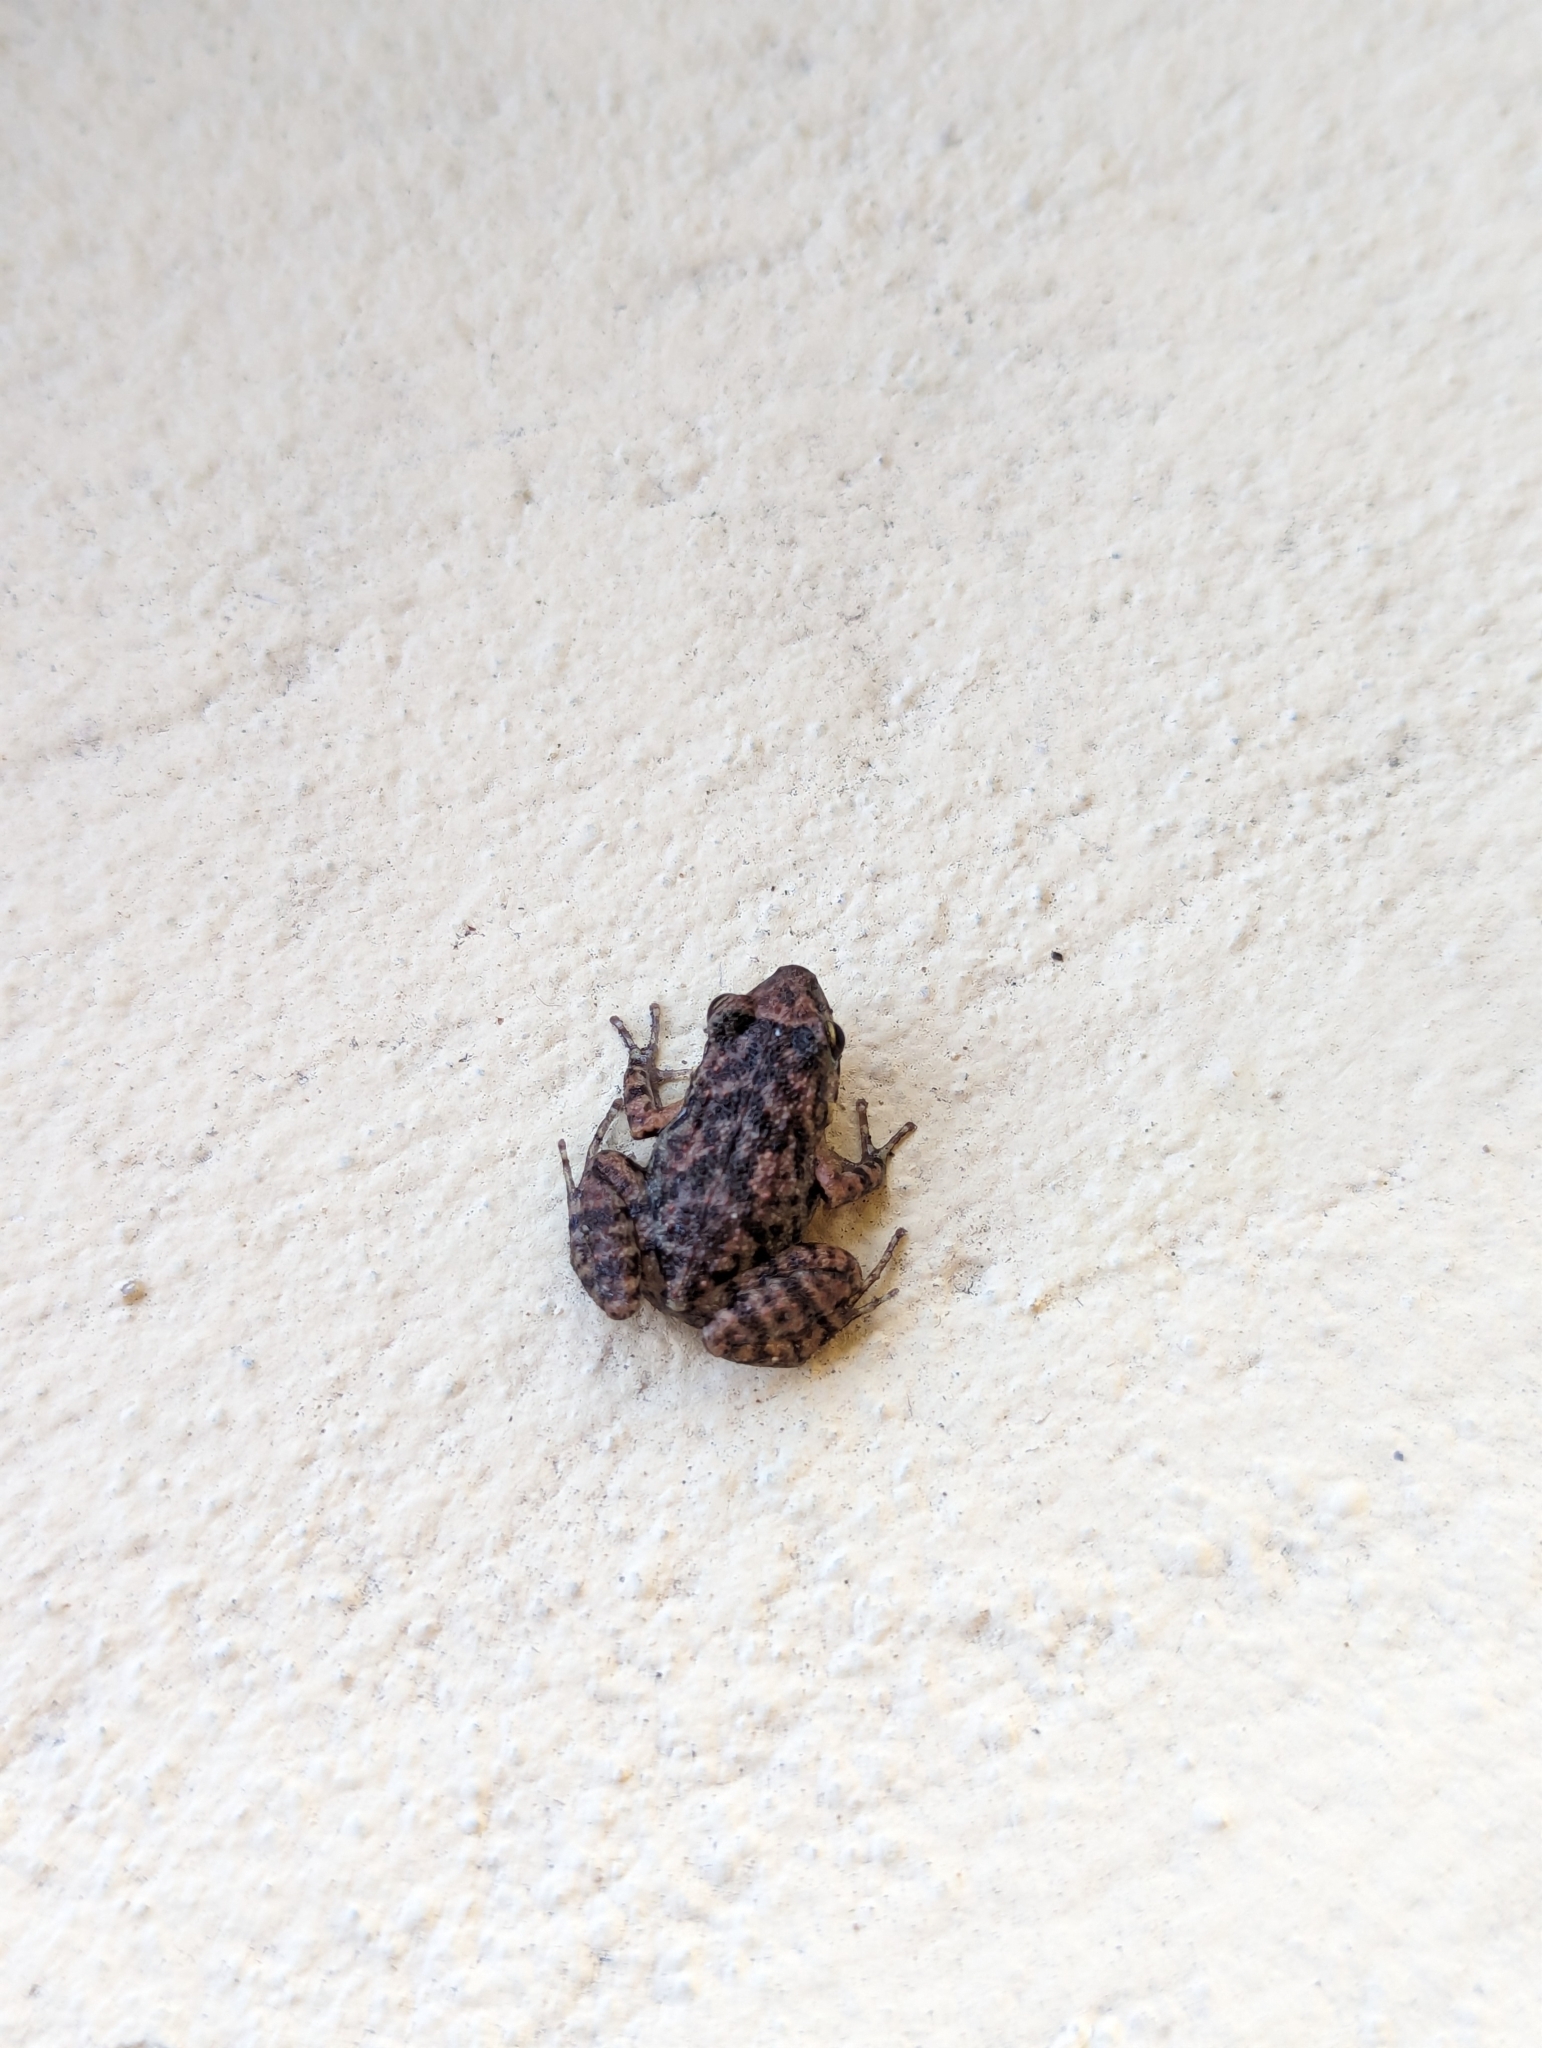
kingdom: Animalia
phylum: Chordata
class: Amphibia
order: Anura
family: Eleutherodactylidae
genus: Eleutherodactylus
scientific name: Eleutherodactylus planirostris
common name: Greenhouse frog
